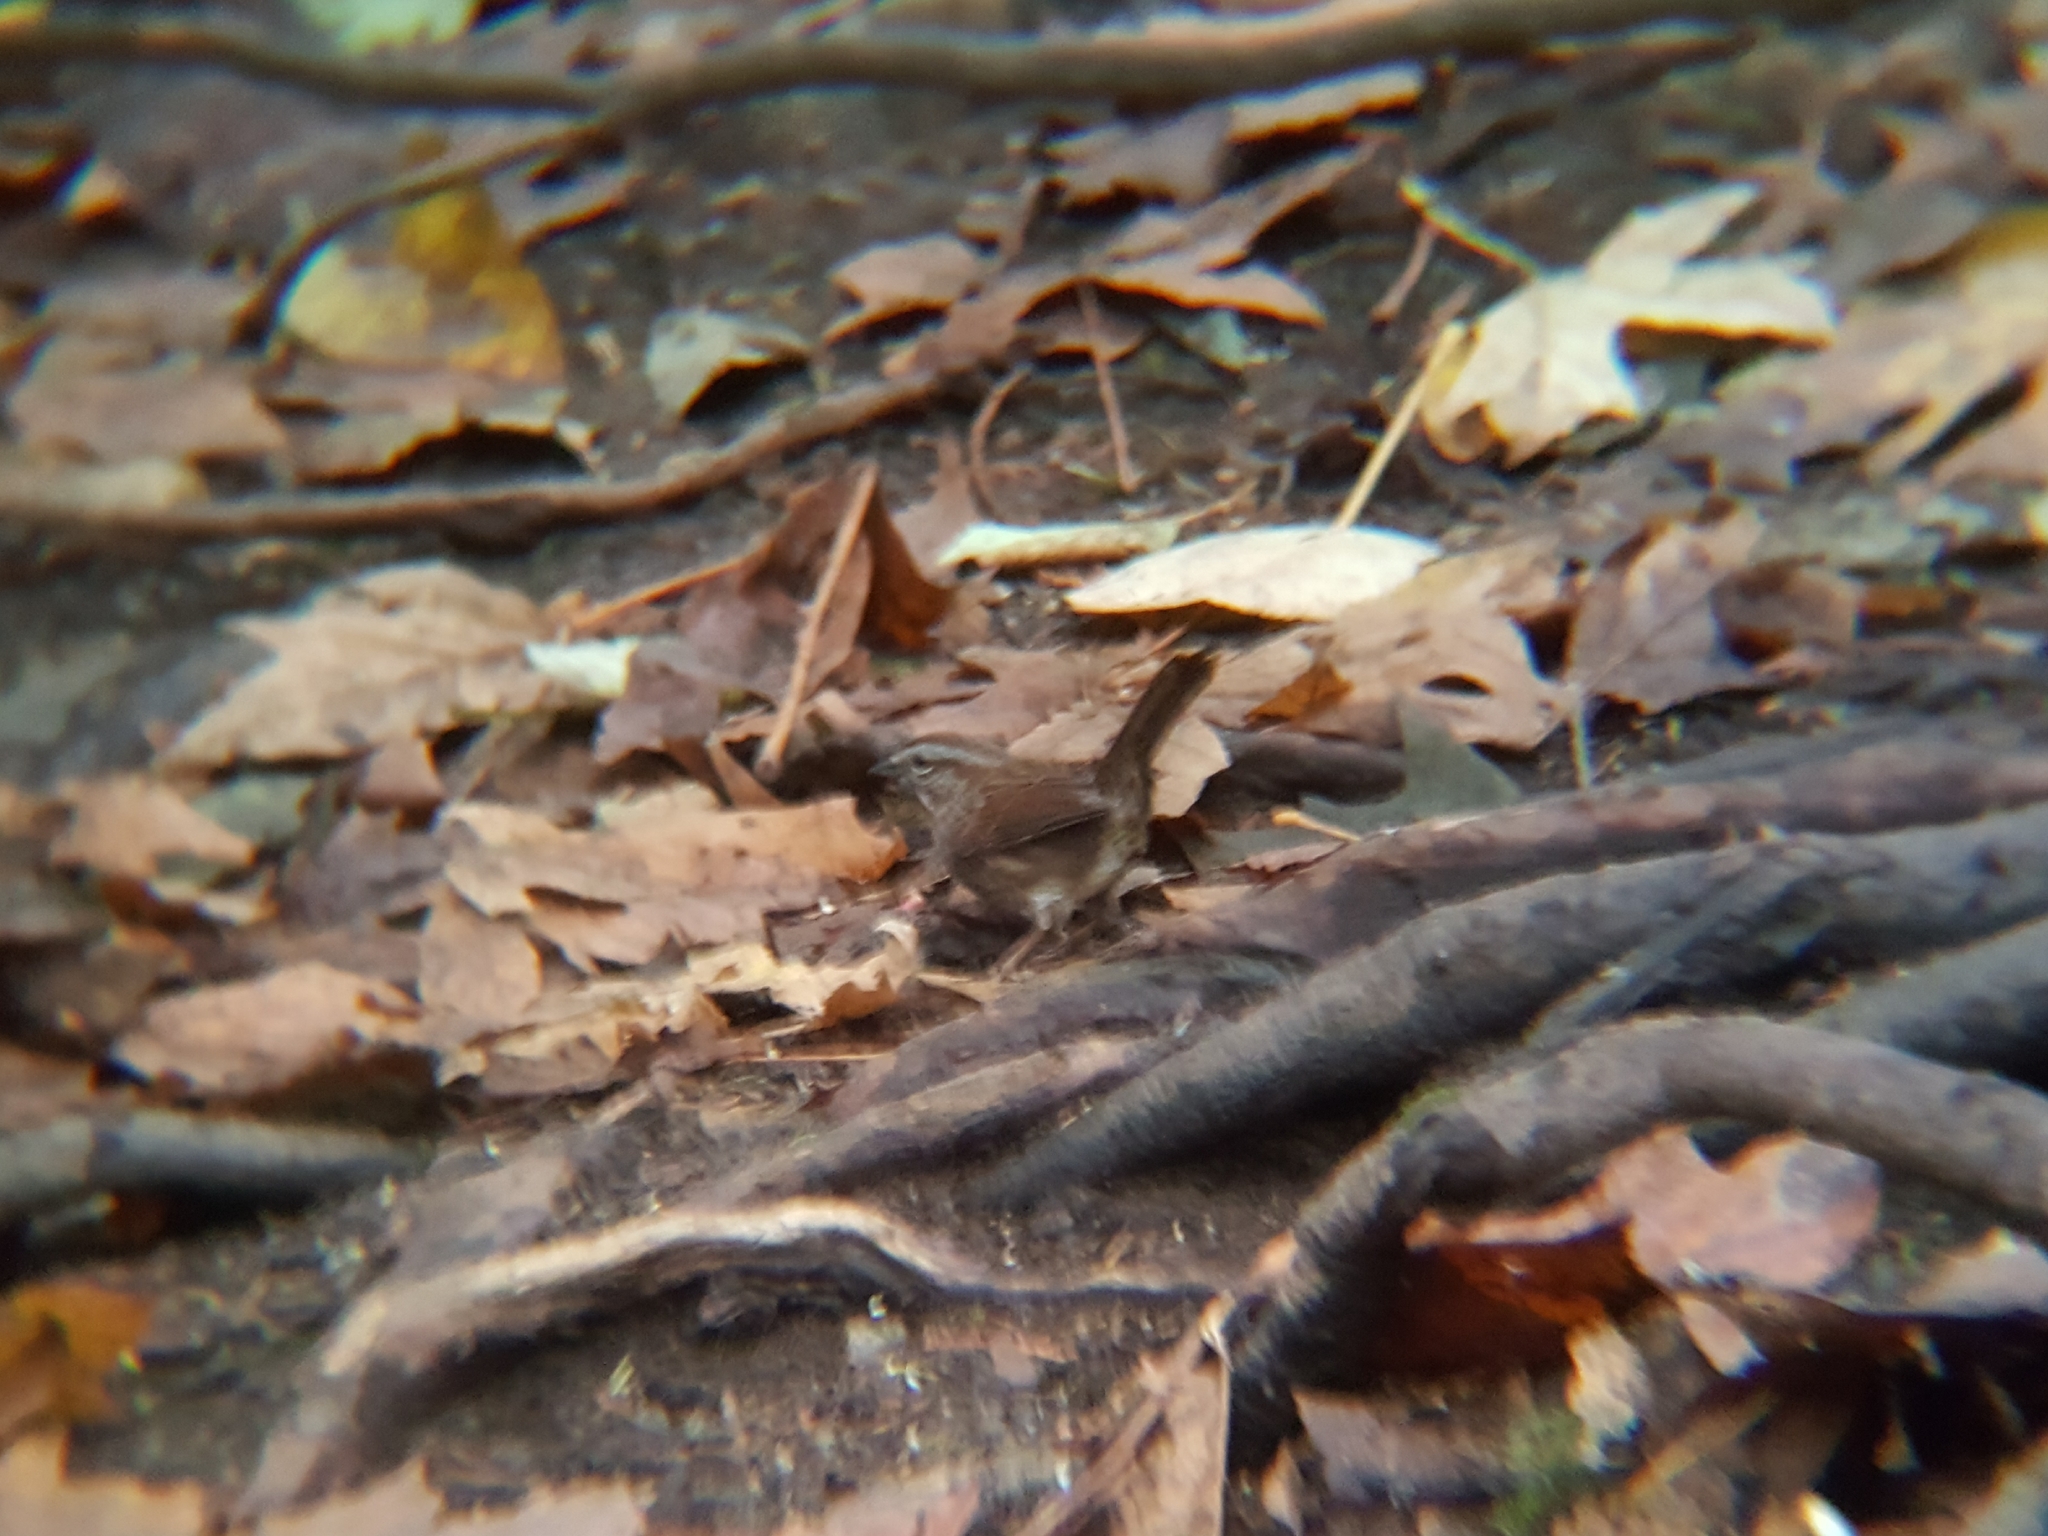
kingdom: Animalia
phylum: Chordata
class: Aves
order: Passeriformes
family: Passerellidae
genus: Melospiza
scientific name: Melospiza melodia
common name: Song sparrow
